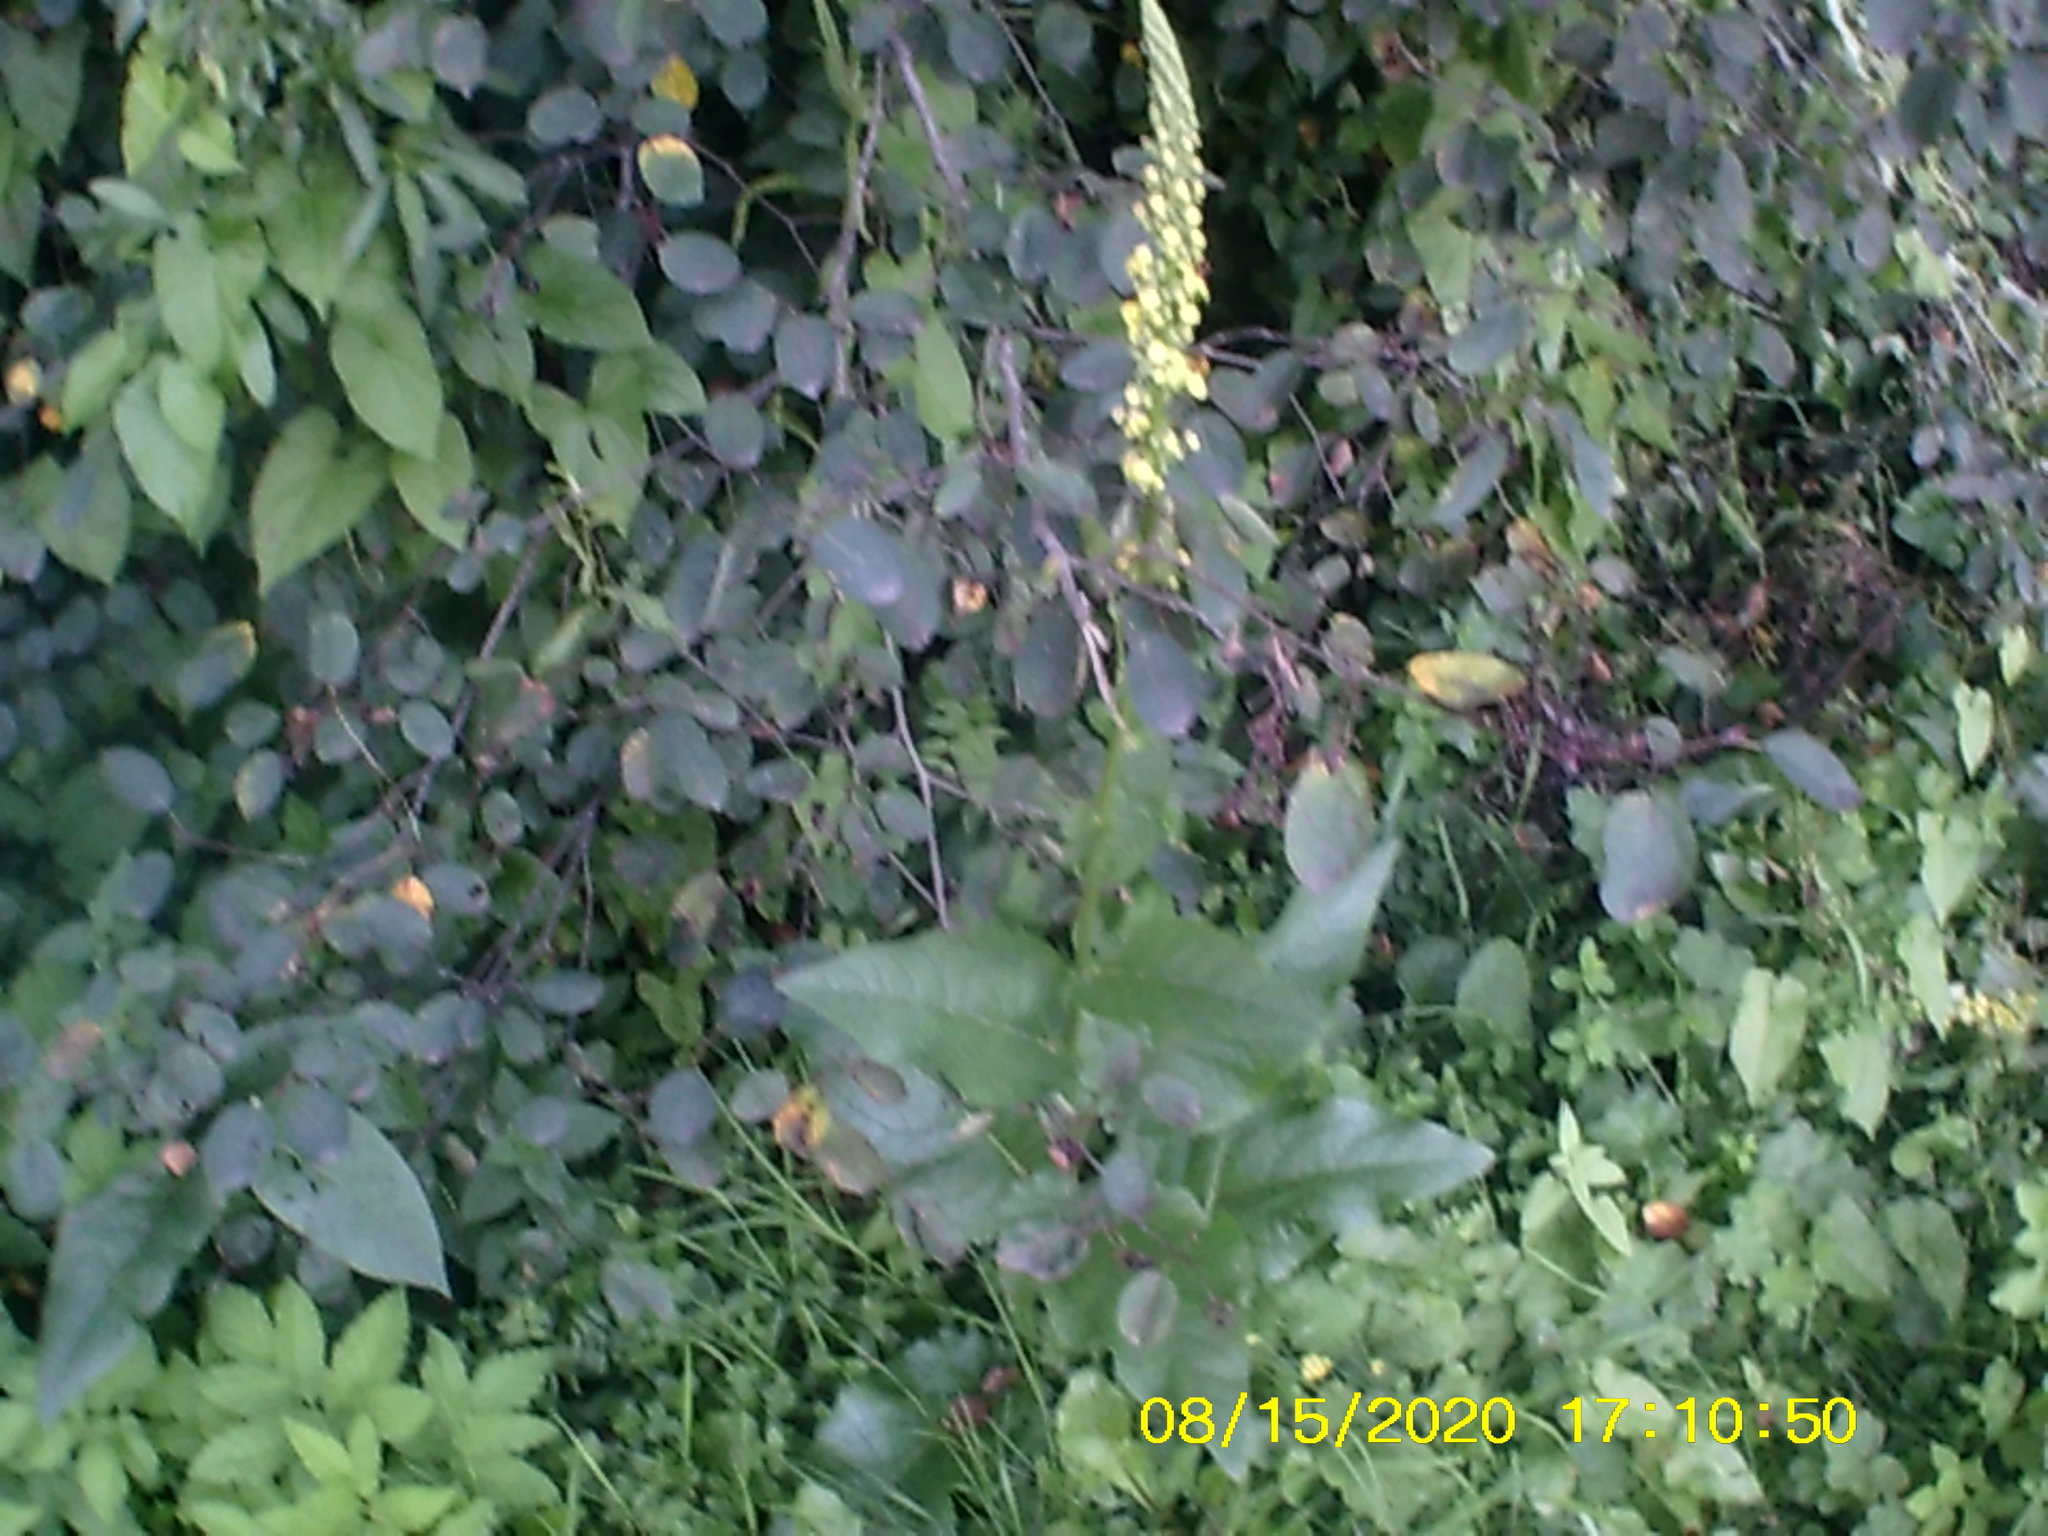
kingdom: Plantae
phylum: Tracheophyta
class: Magnoliopsida
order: Lamiales
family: Scrophulariaceae
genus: Verbascum
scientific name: Verbascum nigrum
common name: Dark mullein
